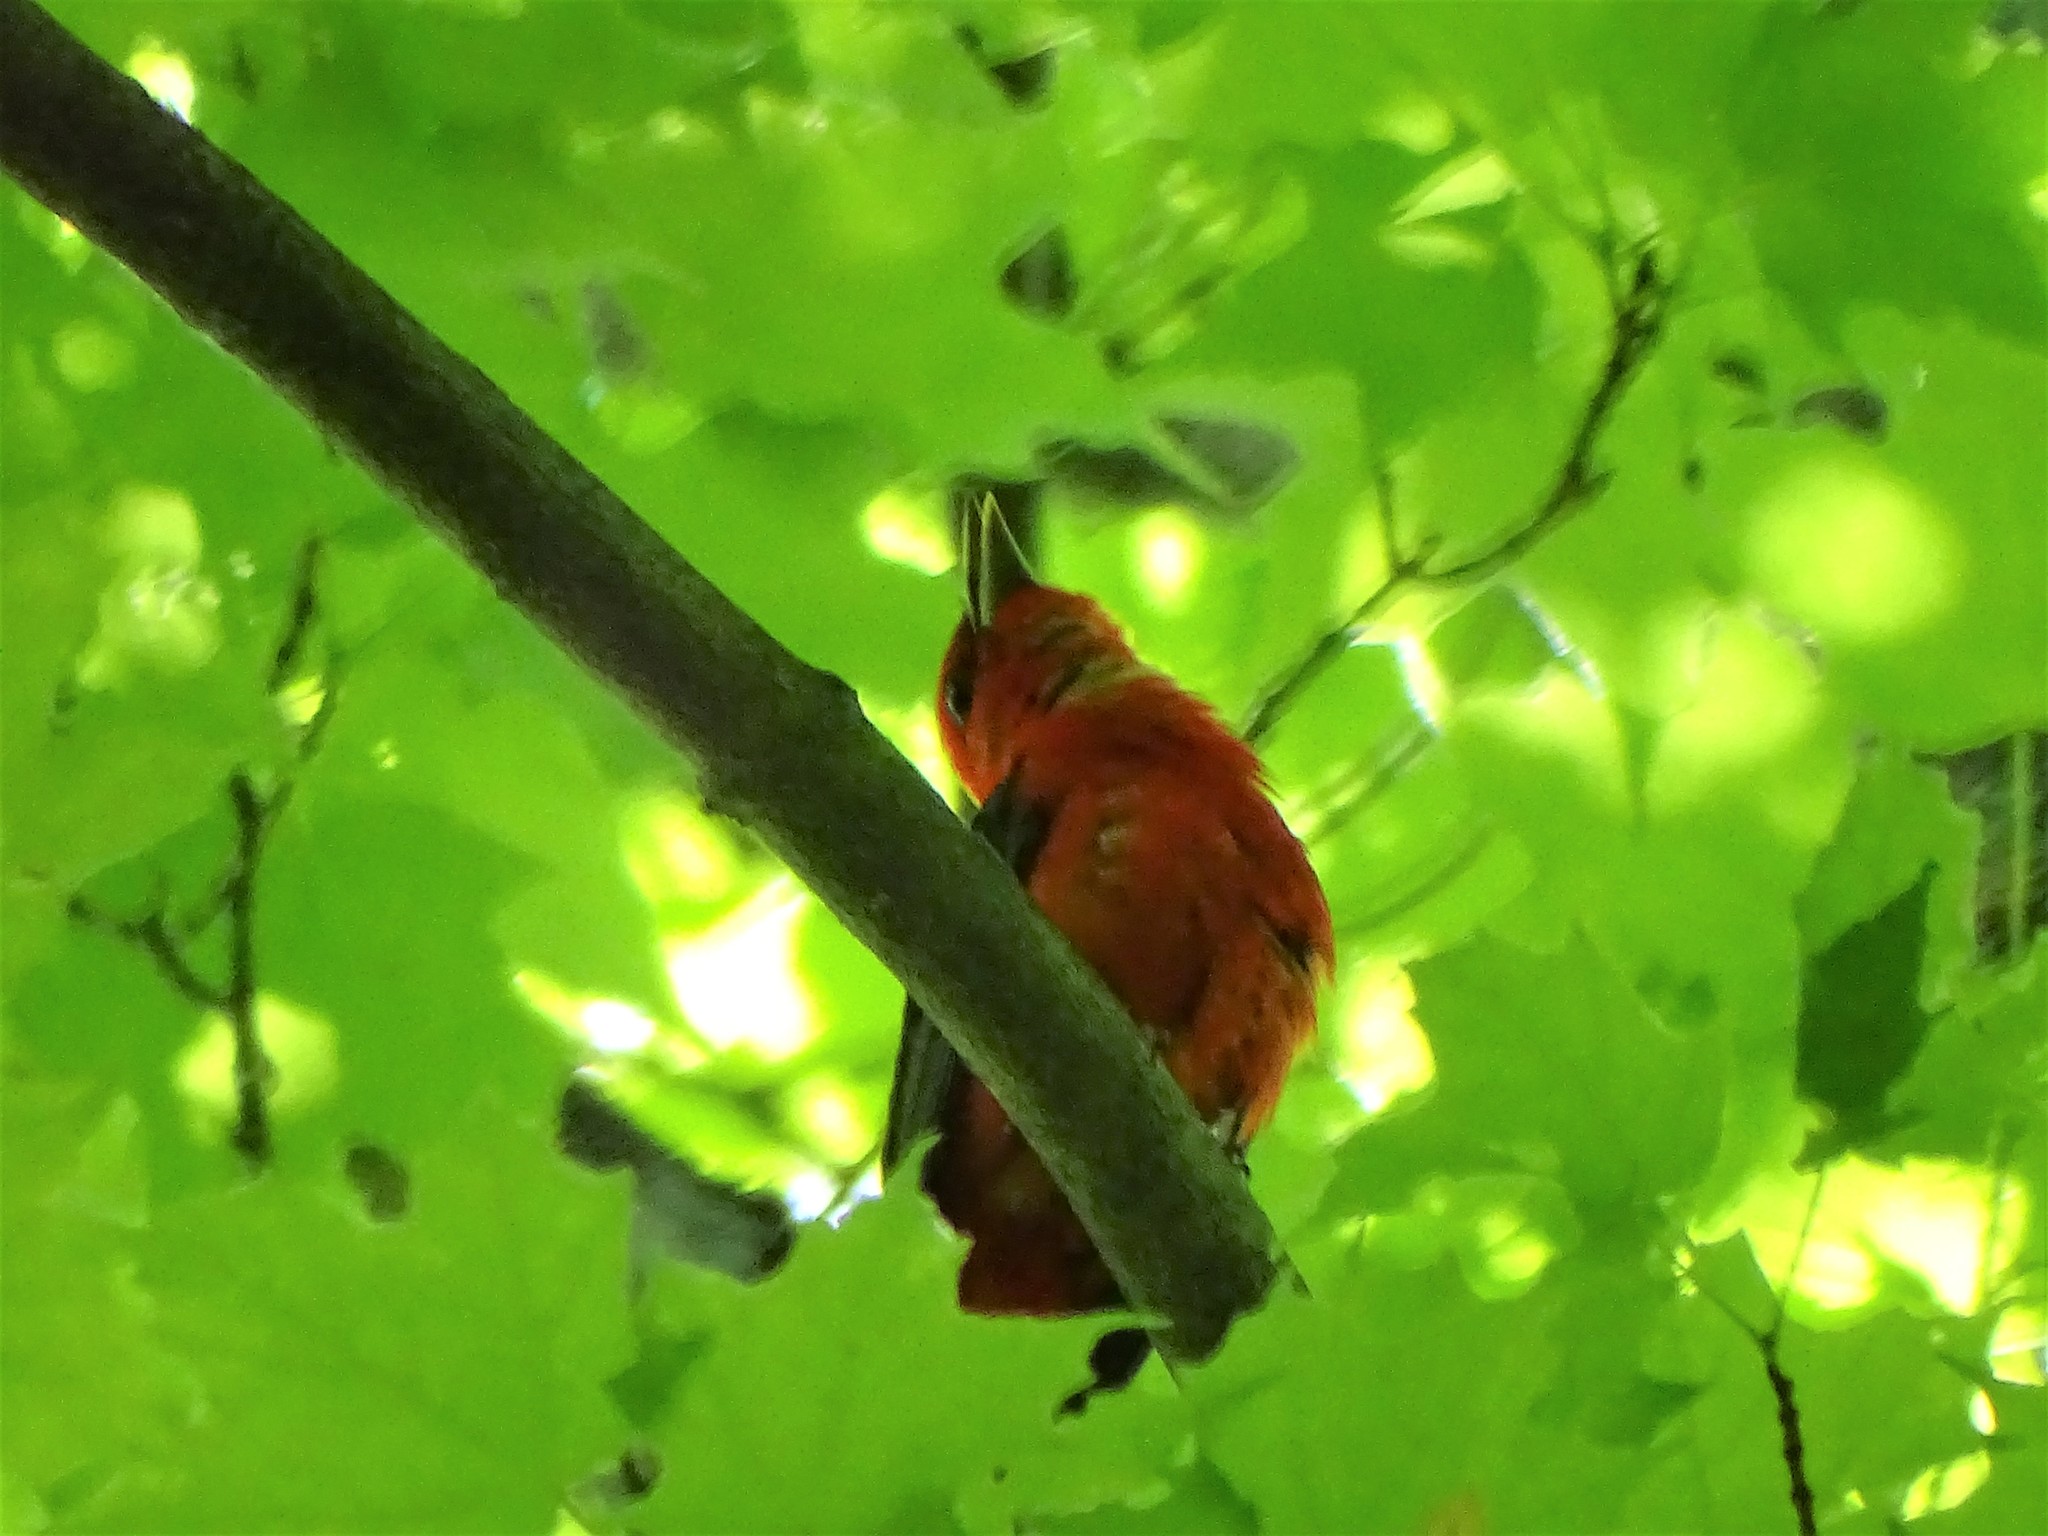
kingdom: Animalia
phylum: Chordata
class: Aves
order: Passeriformes
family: Cardinalidae
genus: Piranga
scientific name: Piranga olivacea
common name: Scarlet tanager
